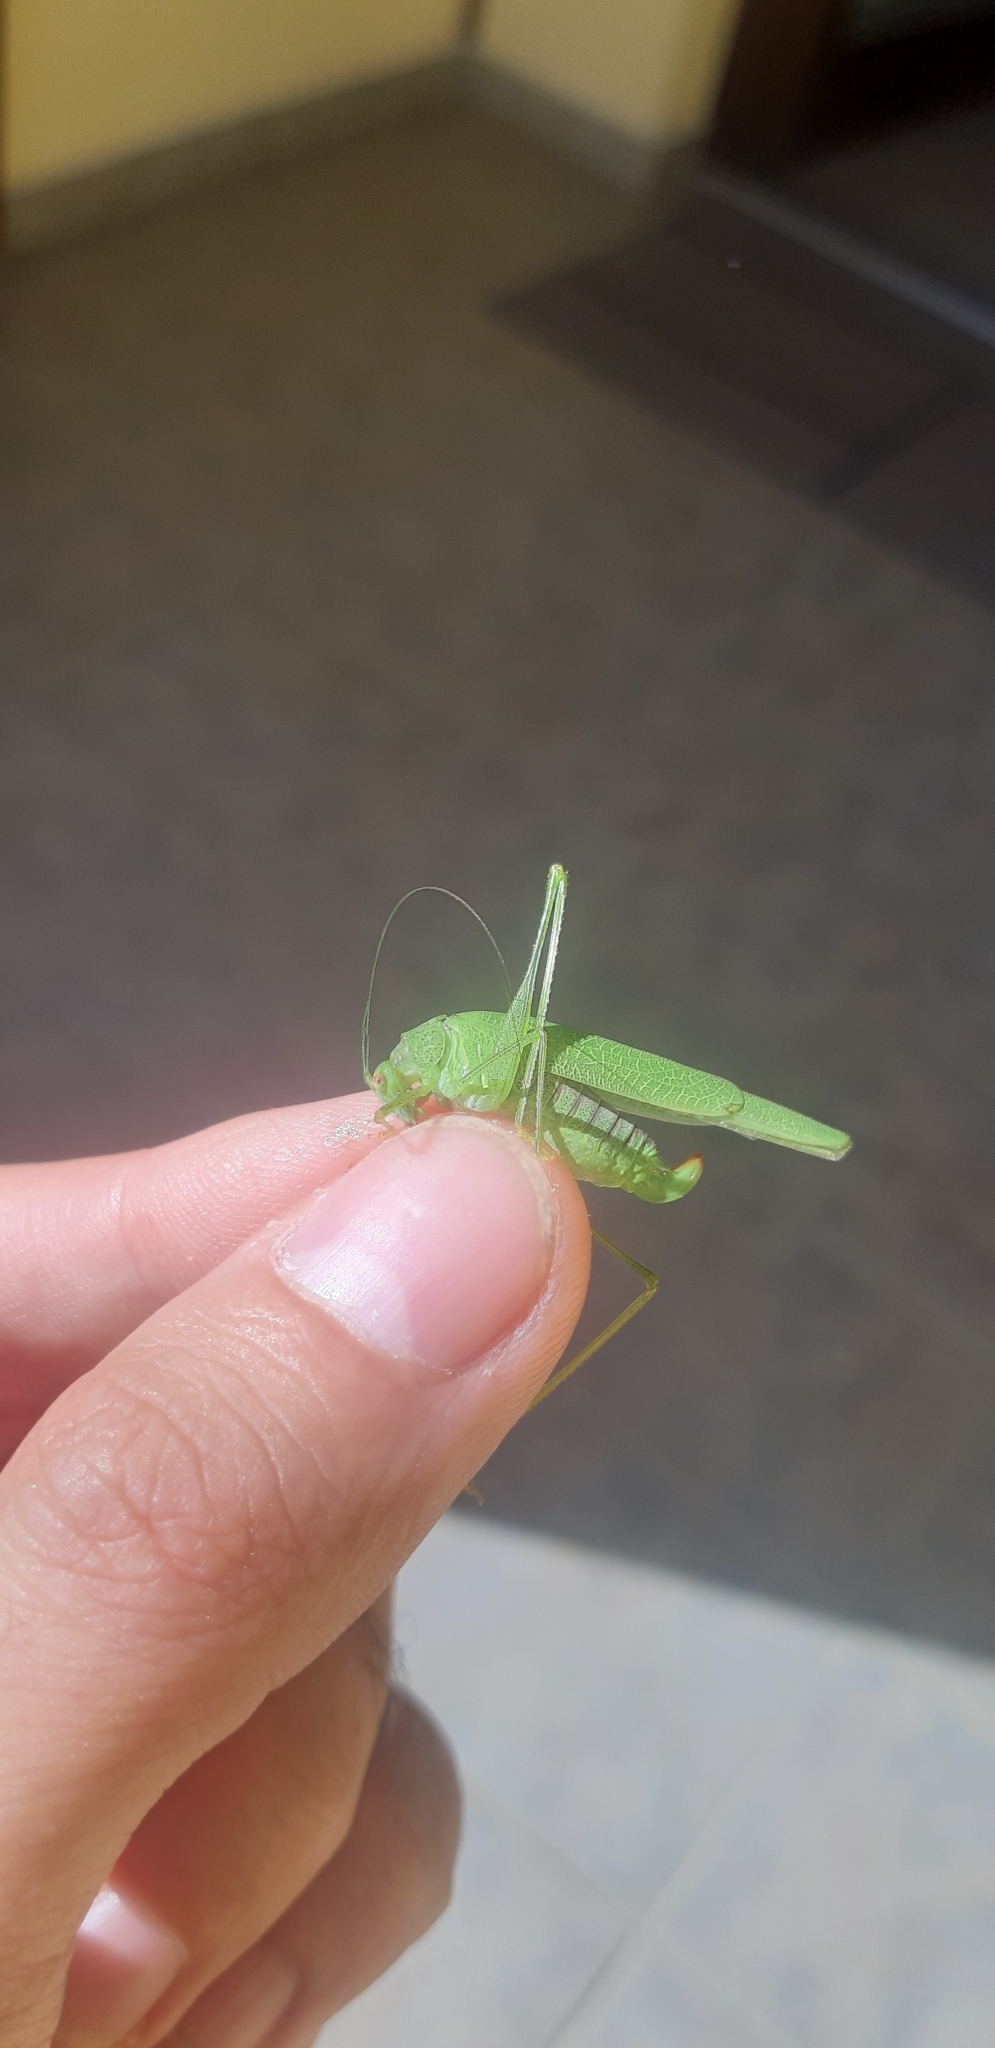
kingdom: Animalia
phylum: Arthropoda
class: Insecta
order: Orthoptera
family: Tettigoniidae
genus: Phaneroptera
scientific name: Phaneroptera nana
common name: Southern sickle bush-cricket
